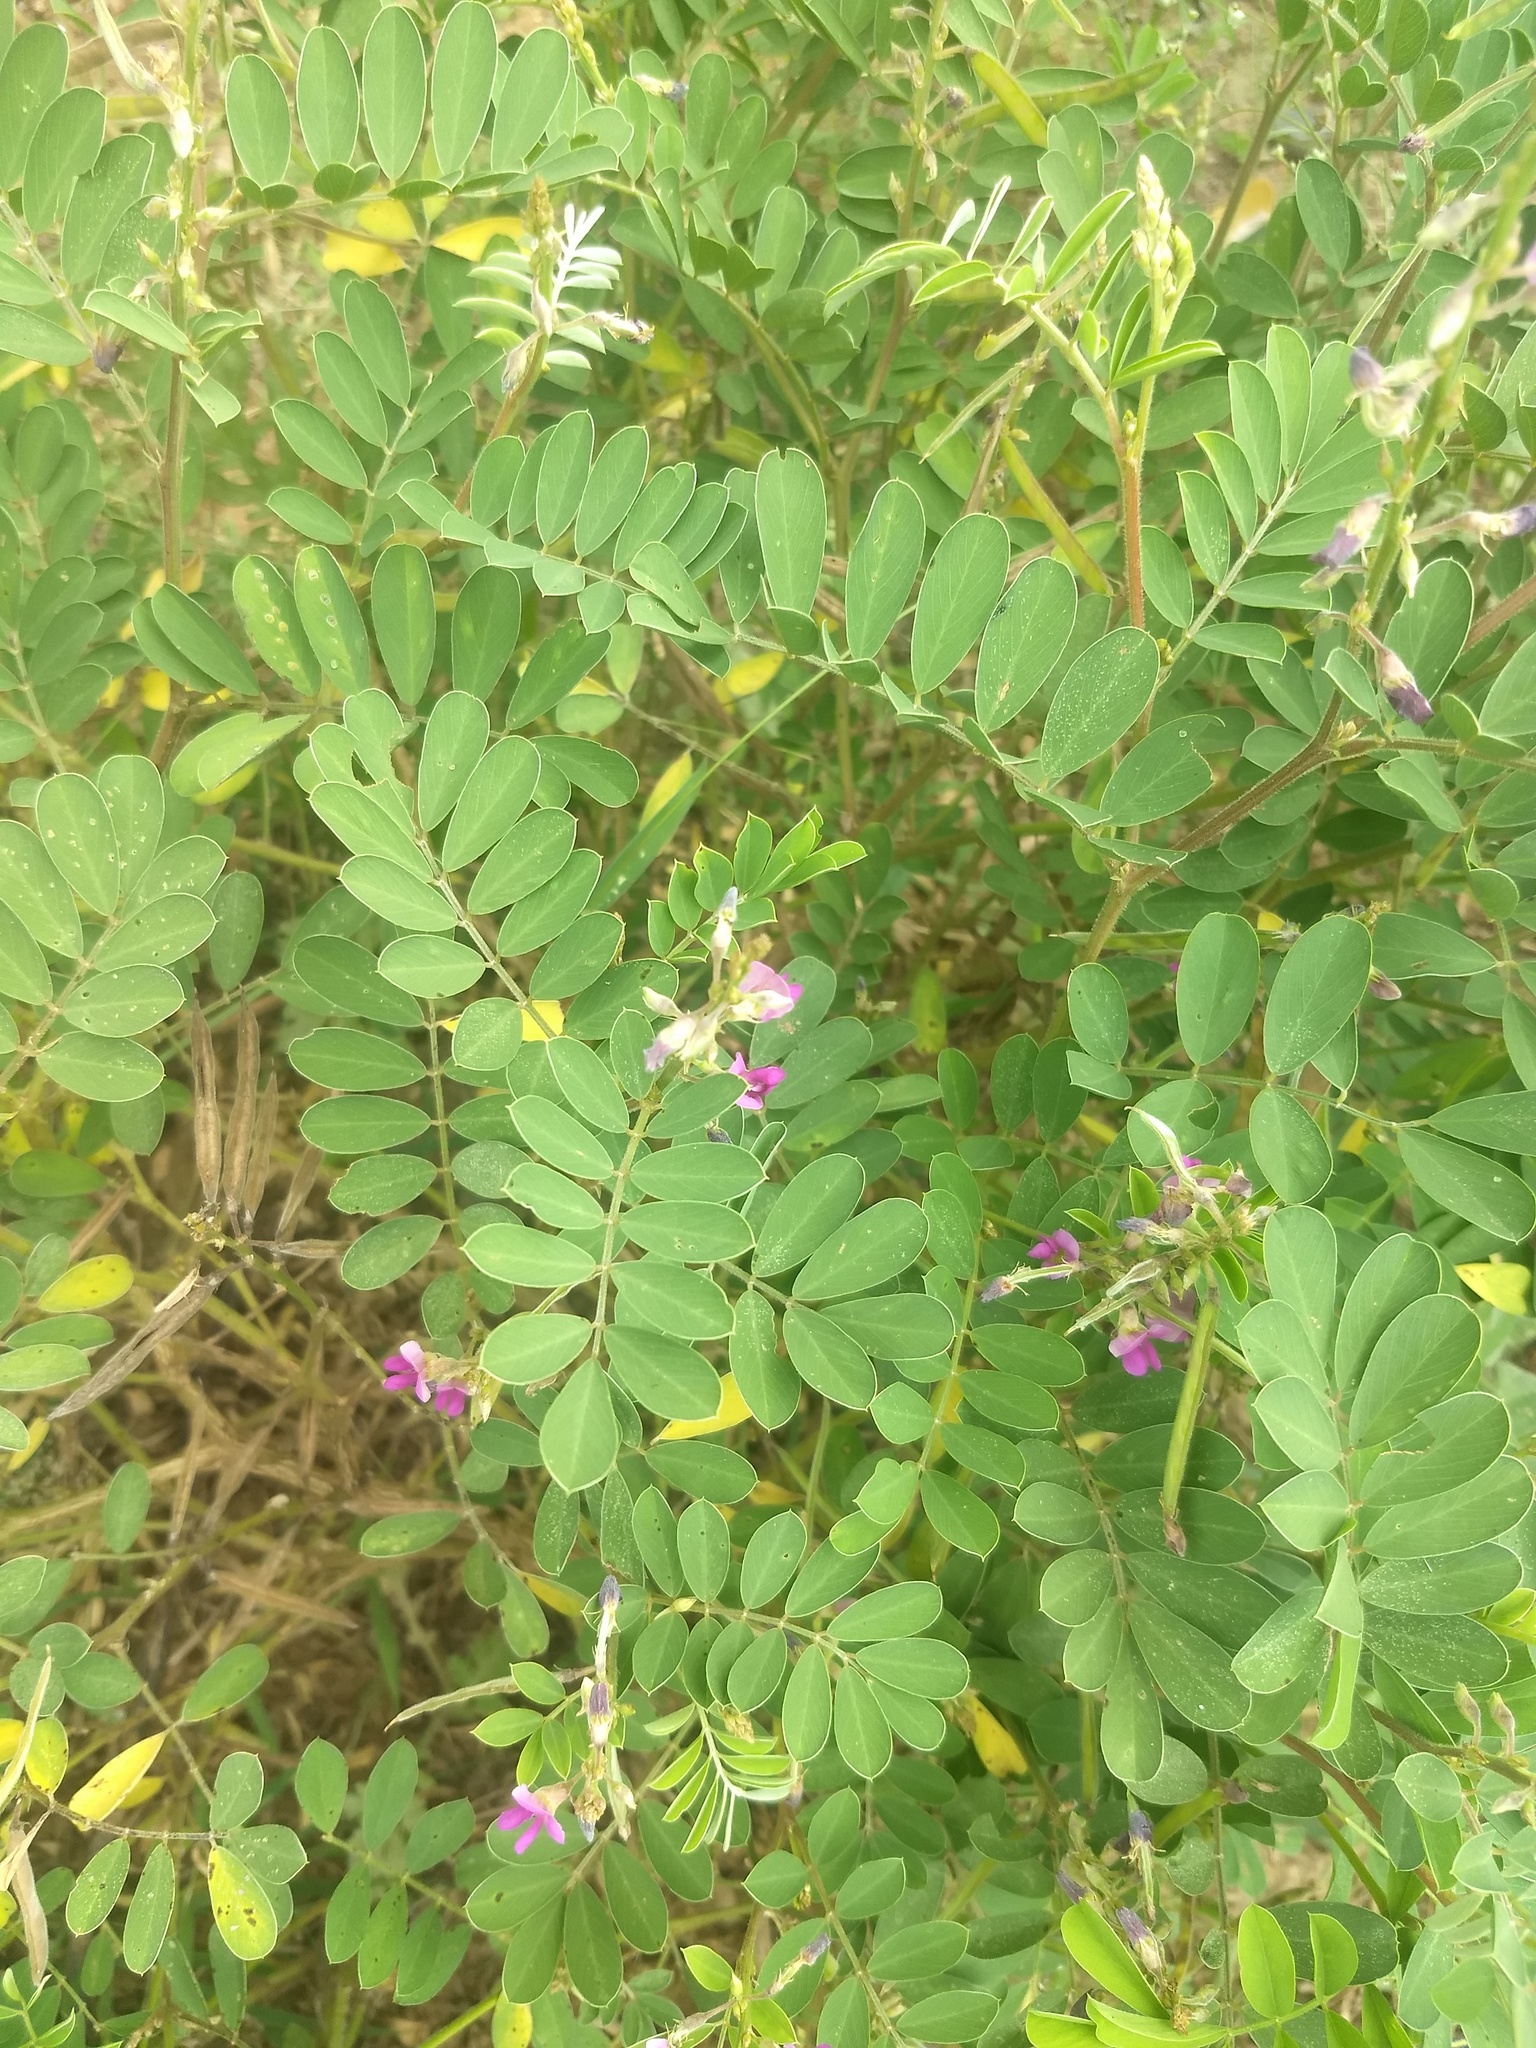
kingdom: Plantae
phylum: Tracheophyta
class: Magnoliopsida
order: Fabales
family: Fabaceae
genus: Tephrosia
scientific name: Tephrosia purpurea
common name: Fishpoison
